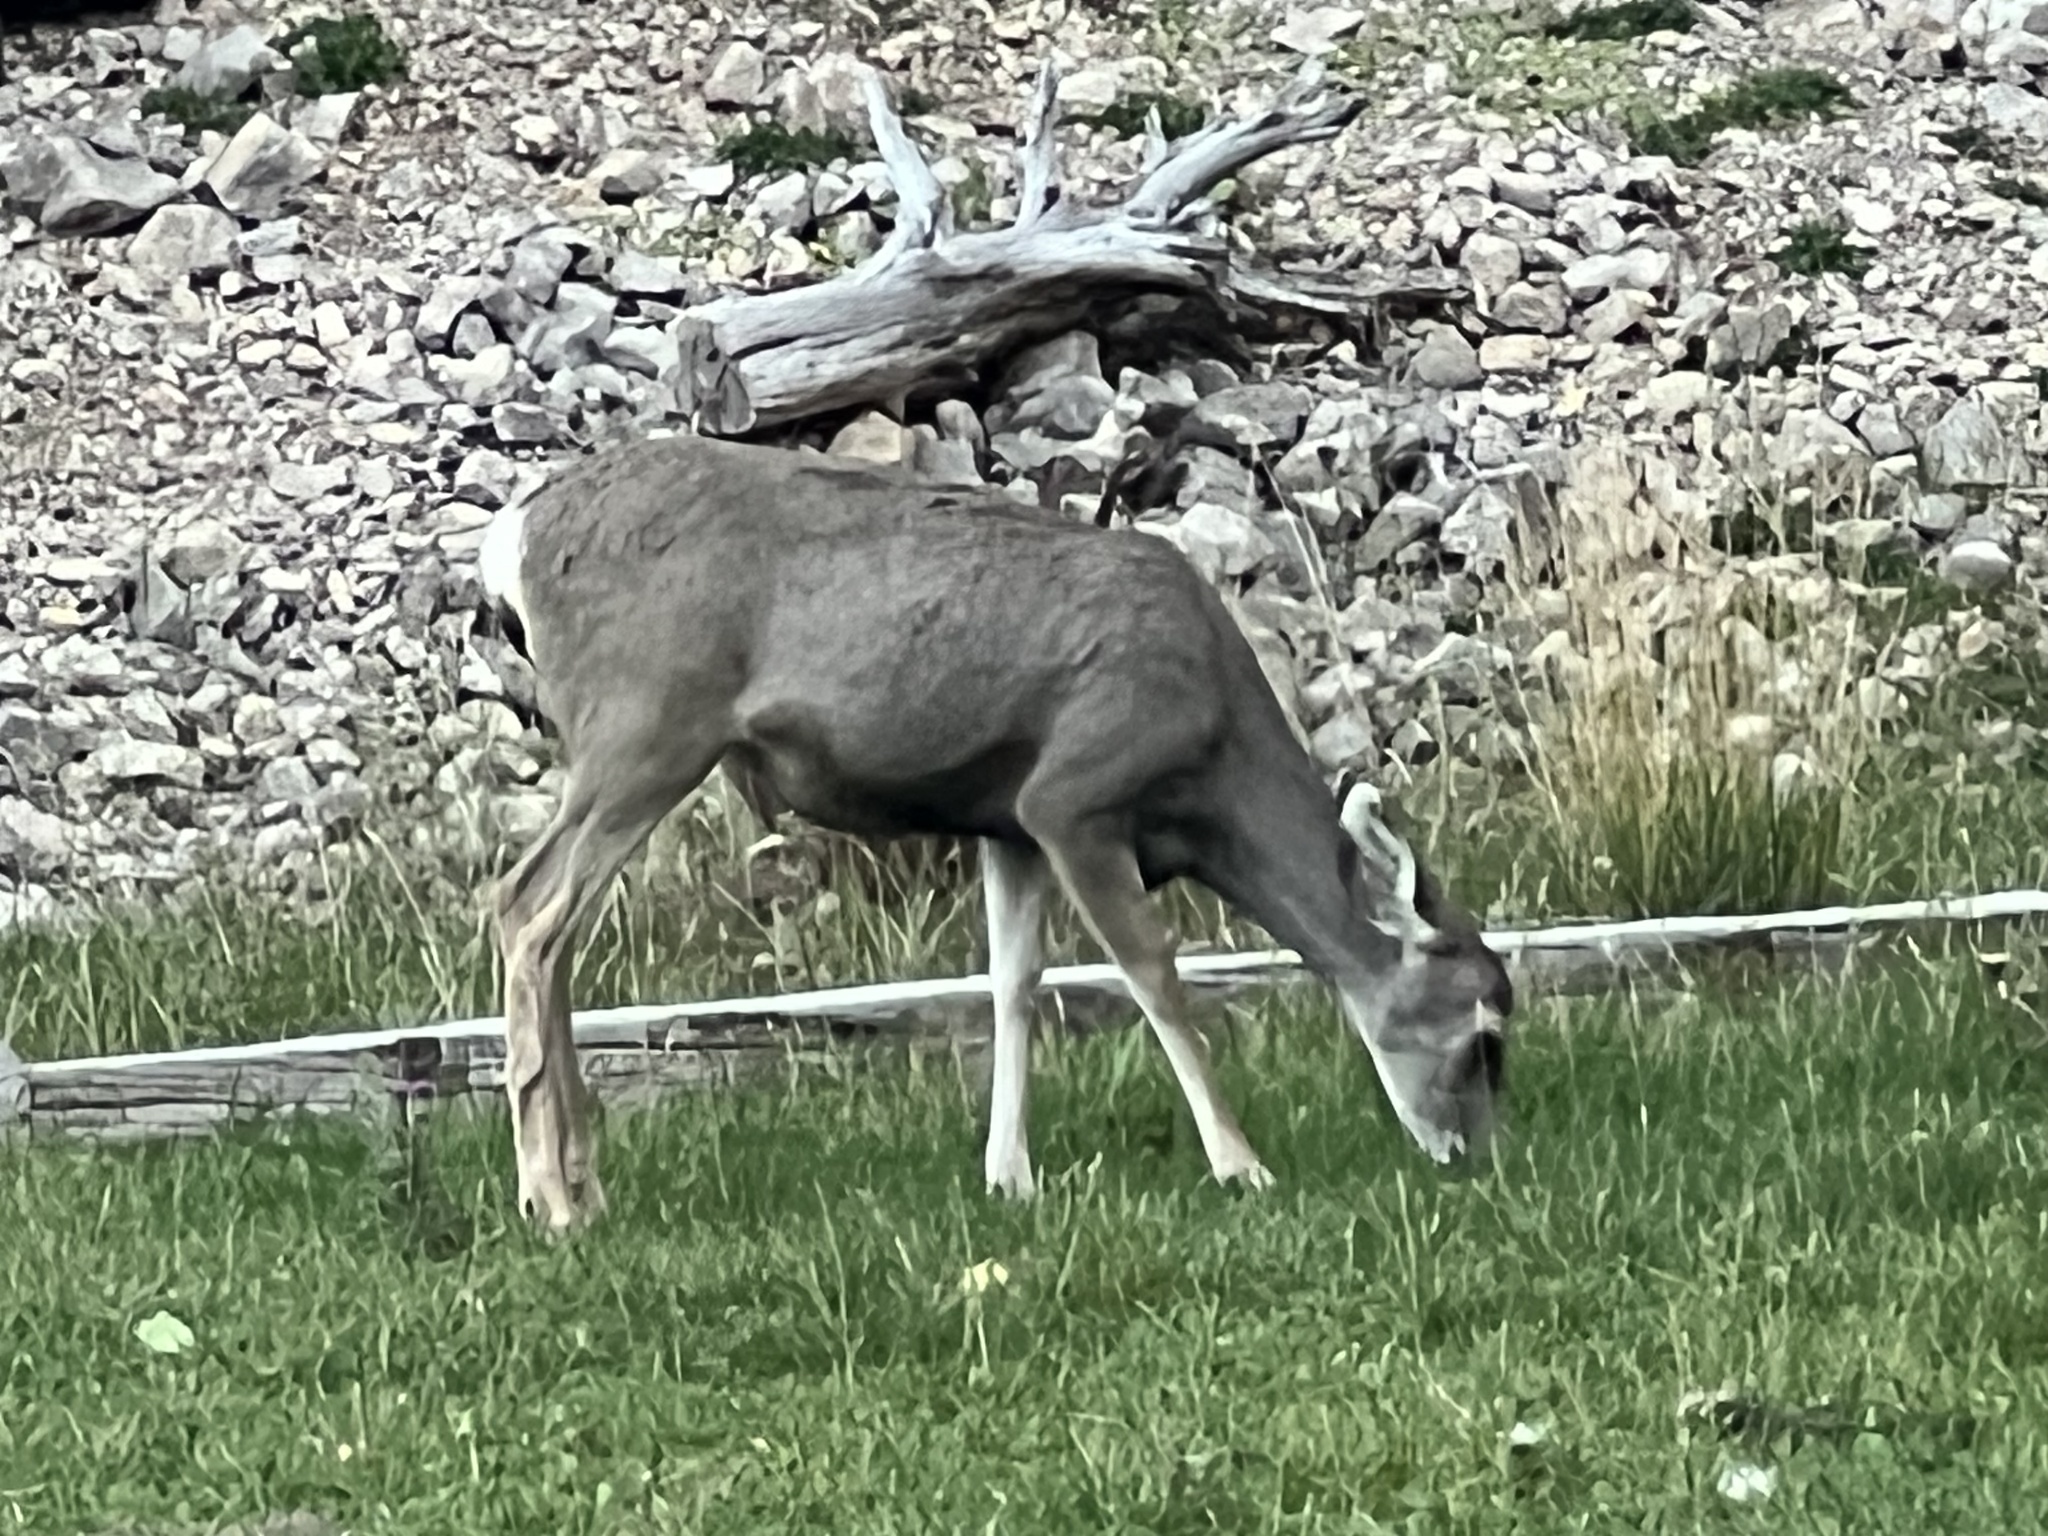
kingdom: Animalia
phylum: Chordata
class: Mammalia
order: Artiodactyla
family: Cervidae
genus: Odocoileus
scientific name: Odocoileus hemionus
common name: Mule deer
